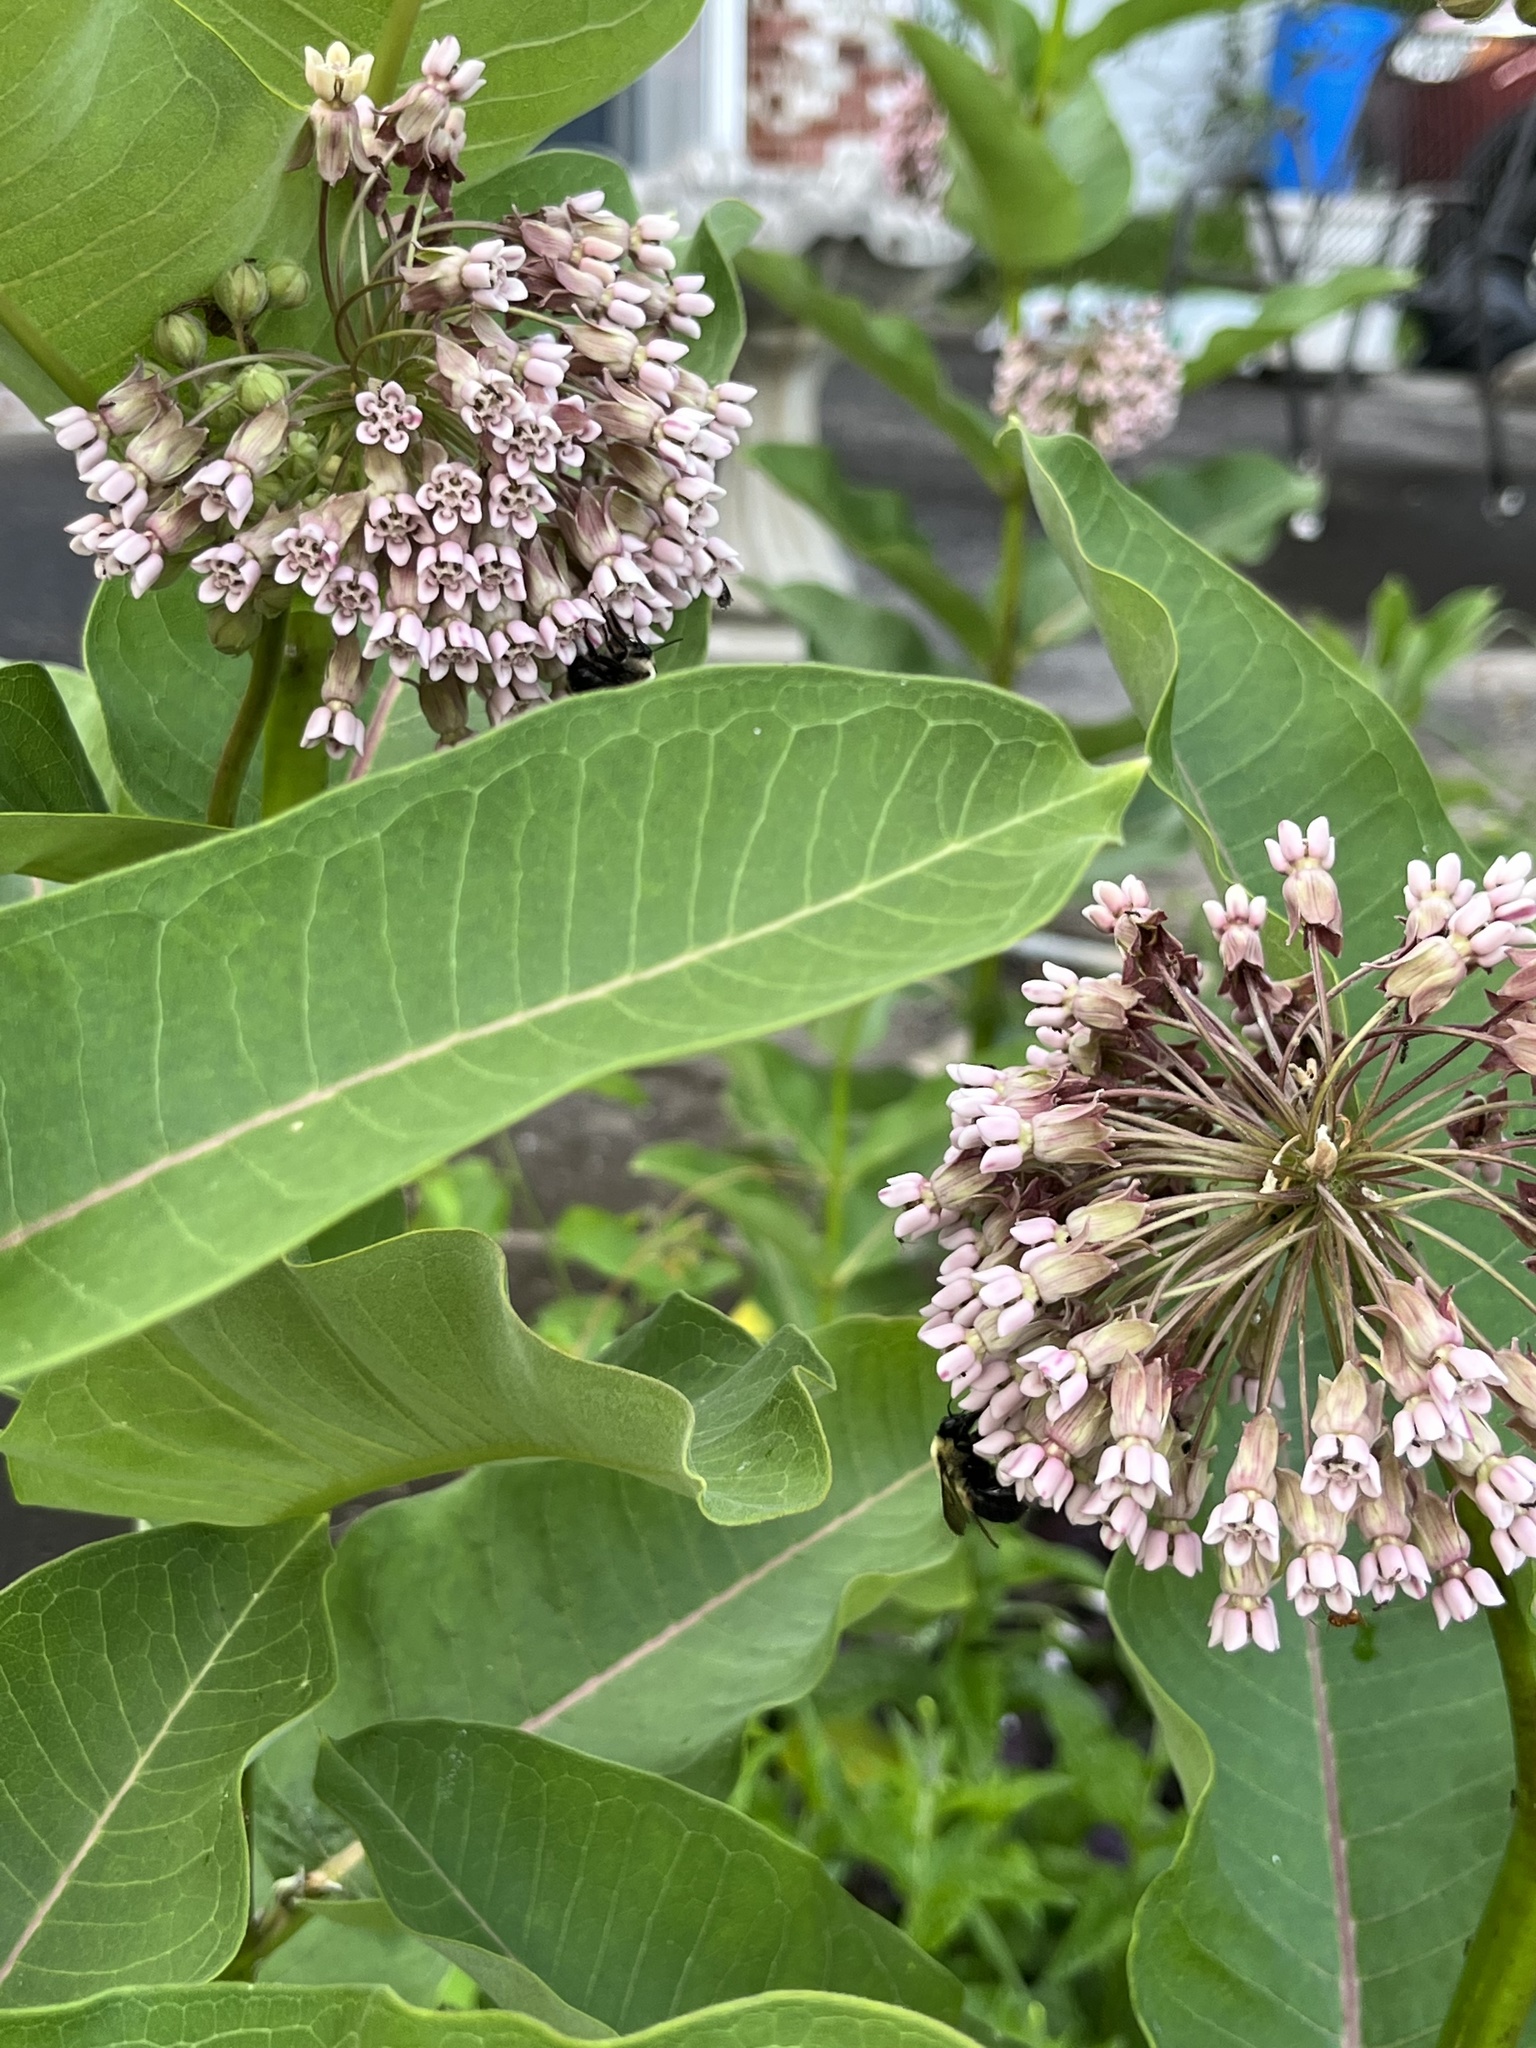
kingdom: Plantae
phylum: Tracheophyta
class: Magnoliopsida
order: Gentianales
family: Apocynaceae
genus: Asclepias
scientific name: Asclepias syriaca
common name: Common milkweed
